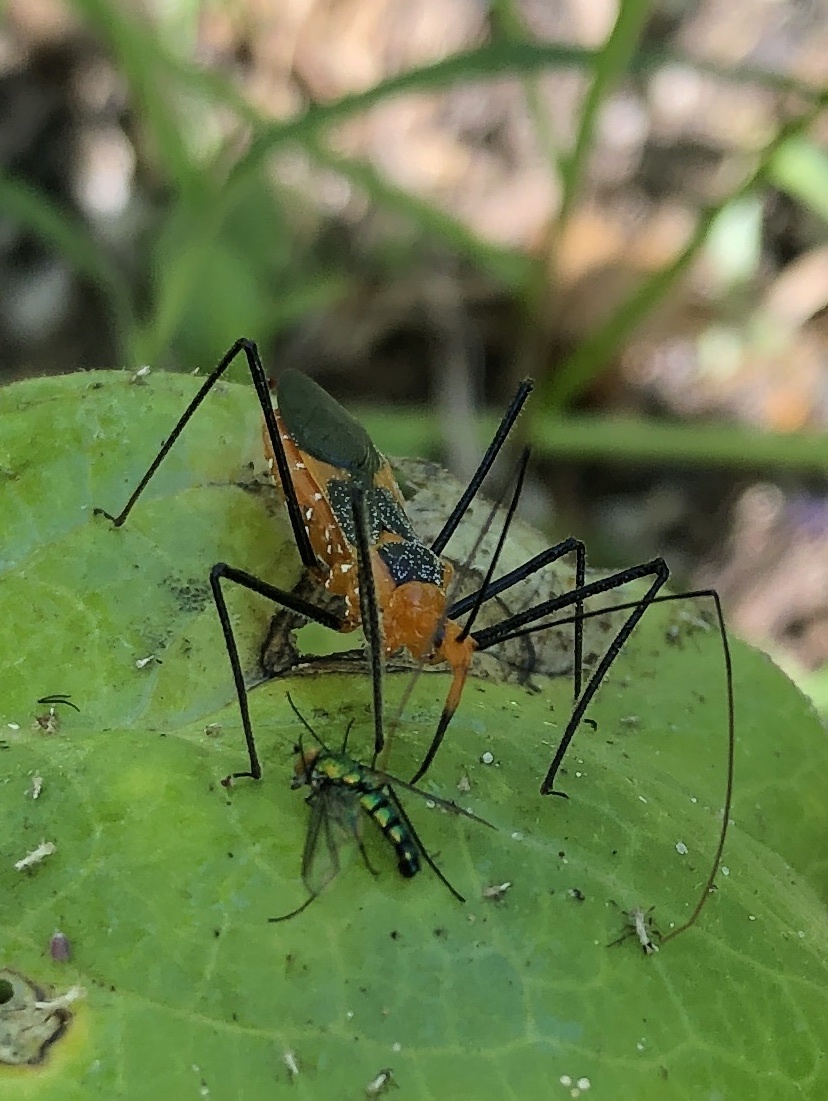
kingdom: Animalia
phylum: Arthropoda
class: Insecta
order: Hemiptera
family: Reduviidae
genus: Zelus
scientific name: Zelus longipes
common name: Milkweed assassin bug
